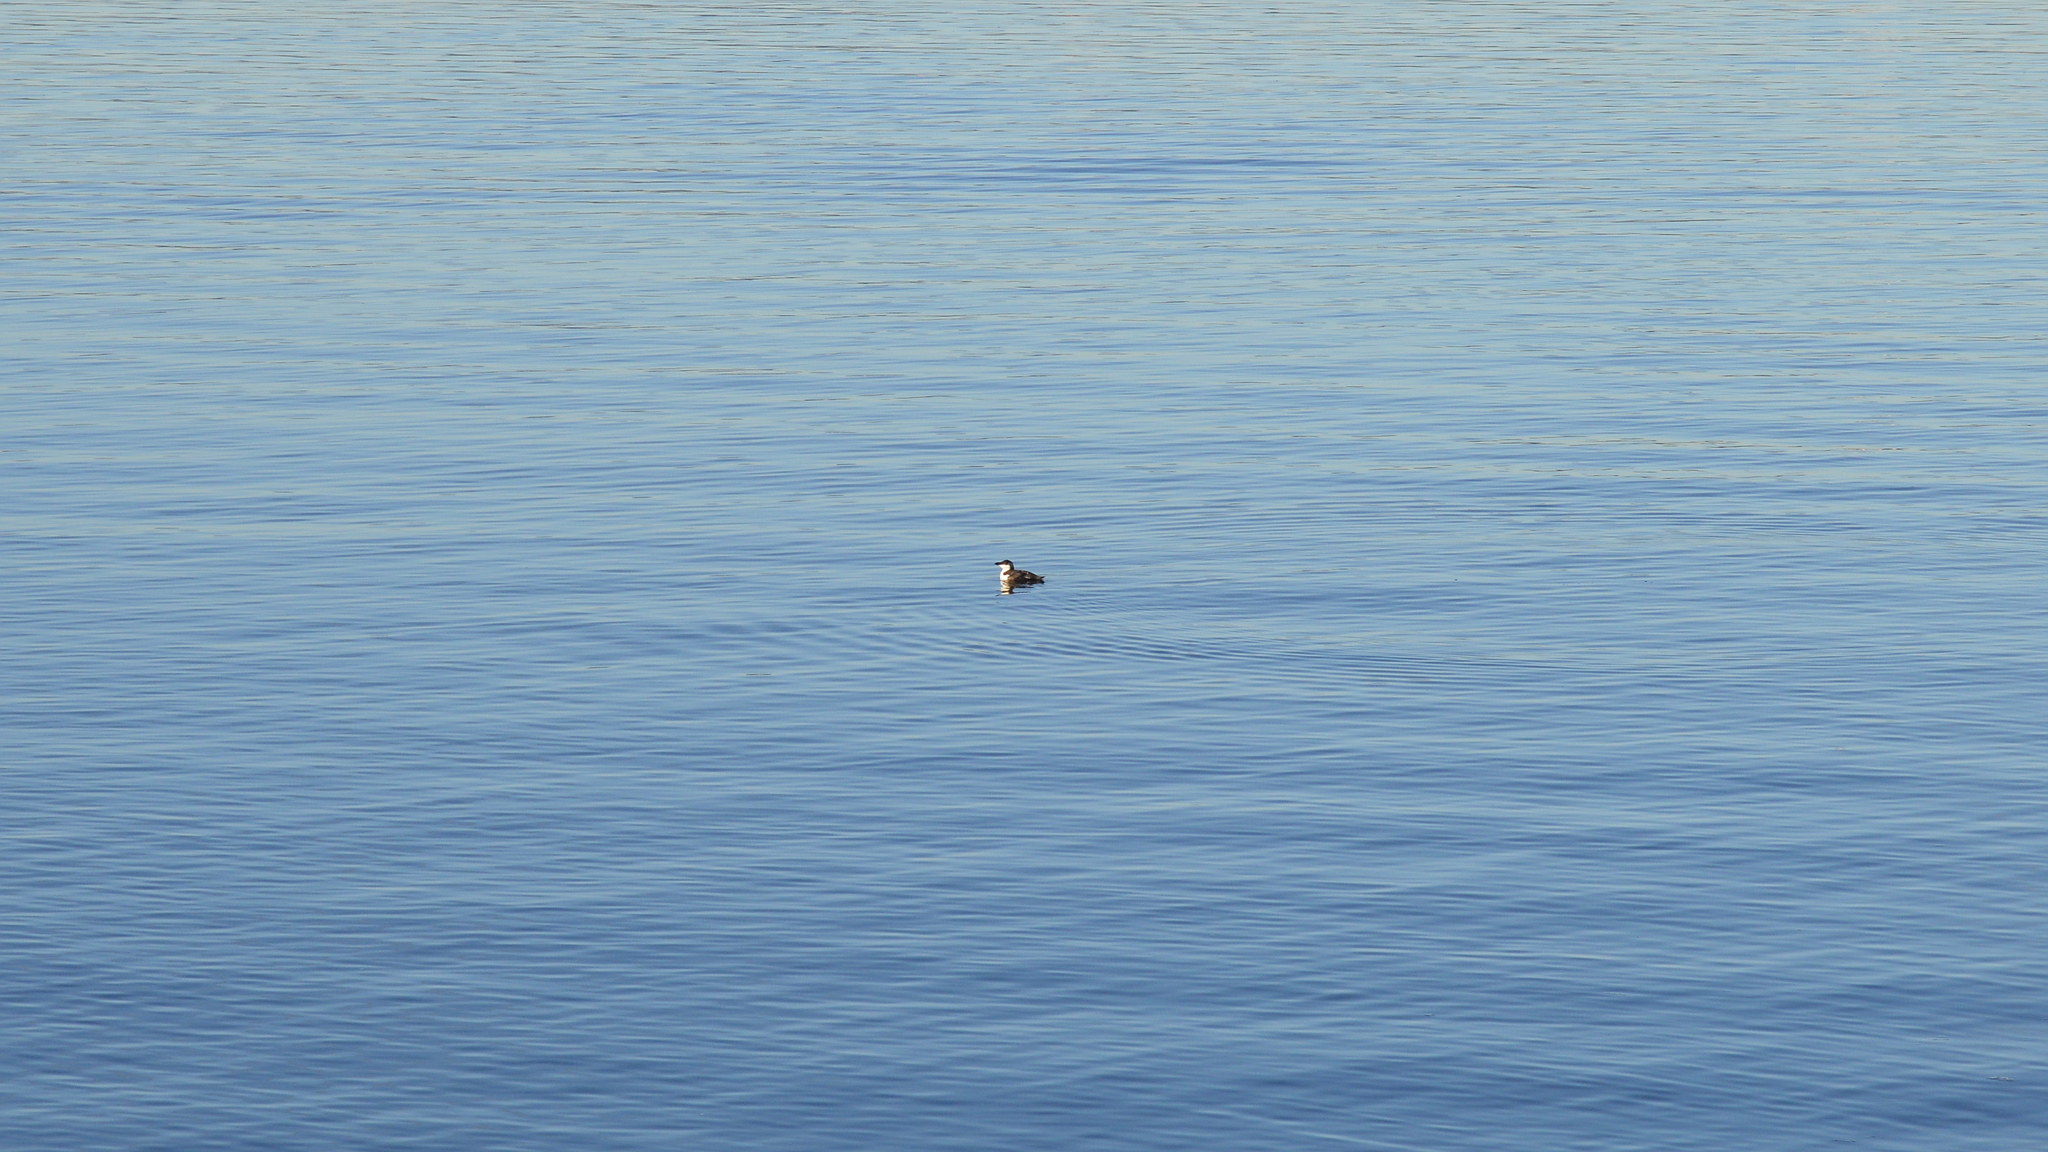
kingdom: Animalia
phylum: Chordata
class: Aves
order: Charadriiformes
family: Alcidae
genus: Alca
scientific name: Alca torda
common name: Razorbill
